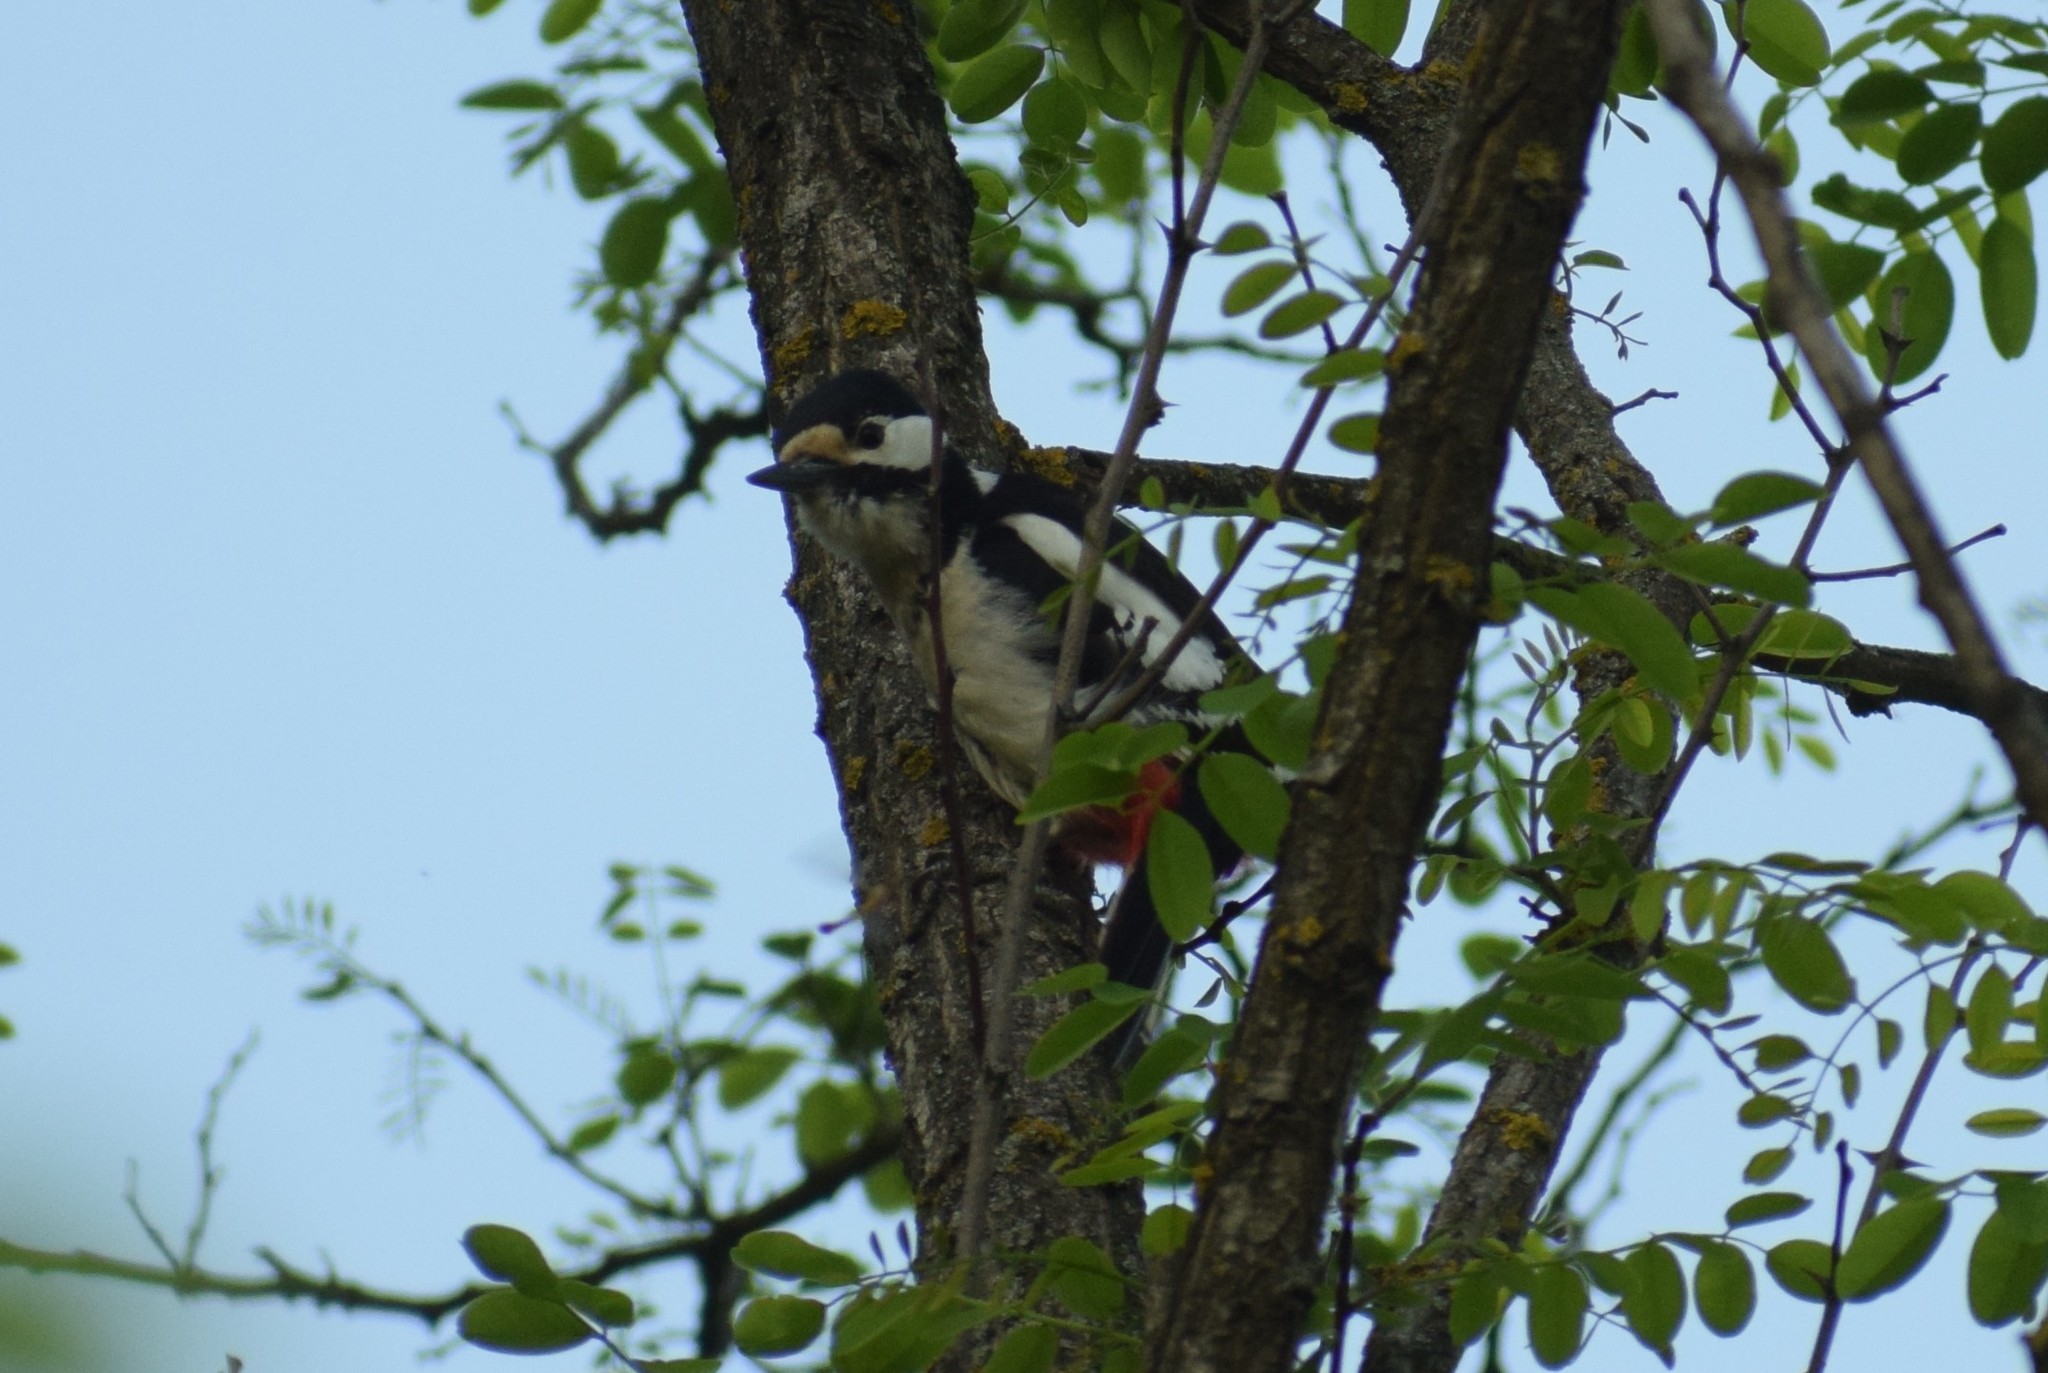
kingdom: Animalia
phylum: Chordata
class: Aves
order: Piciformes
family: Picidae
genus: Dendrocopos
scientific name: Dendrocopos major
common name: Great spotted woodpecker
